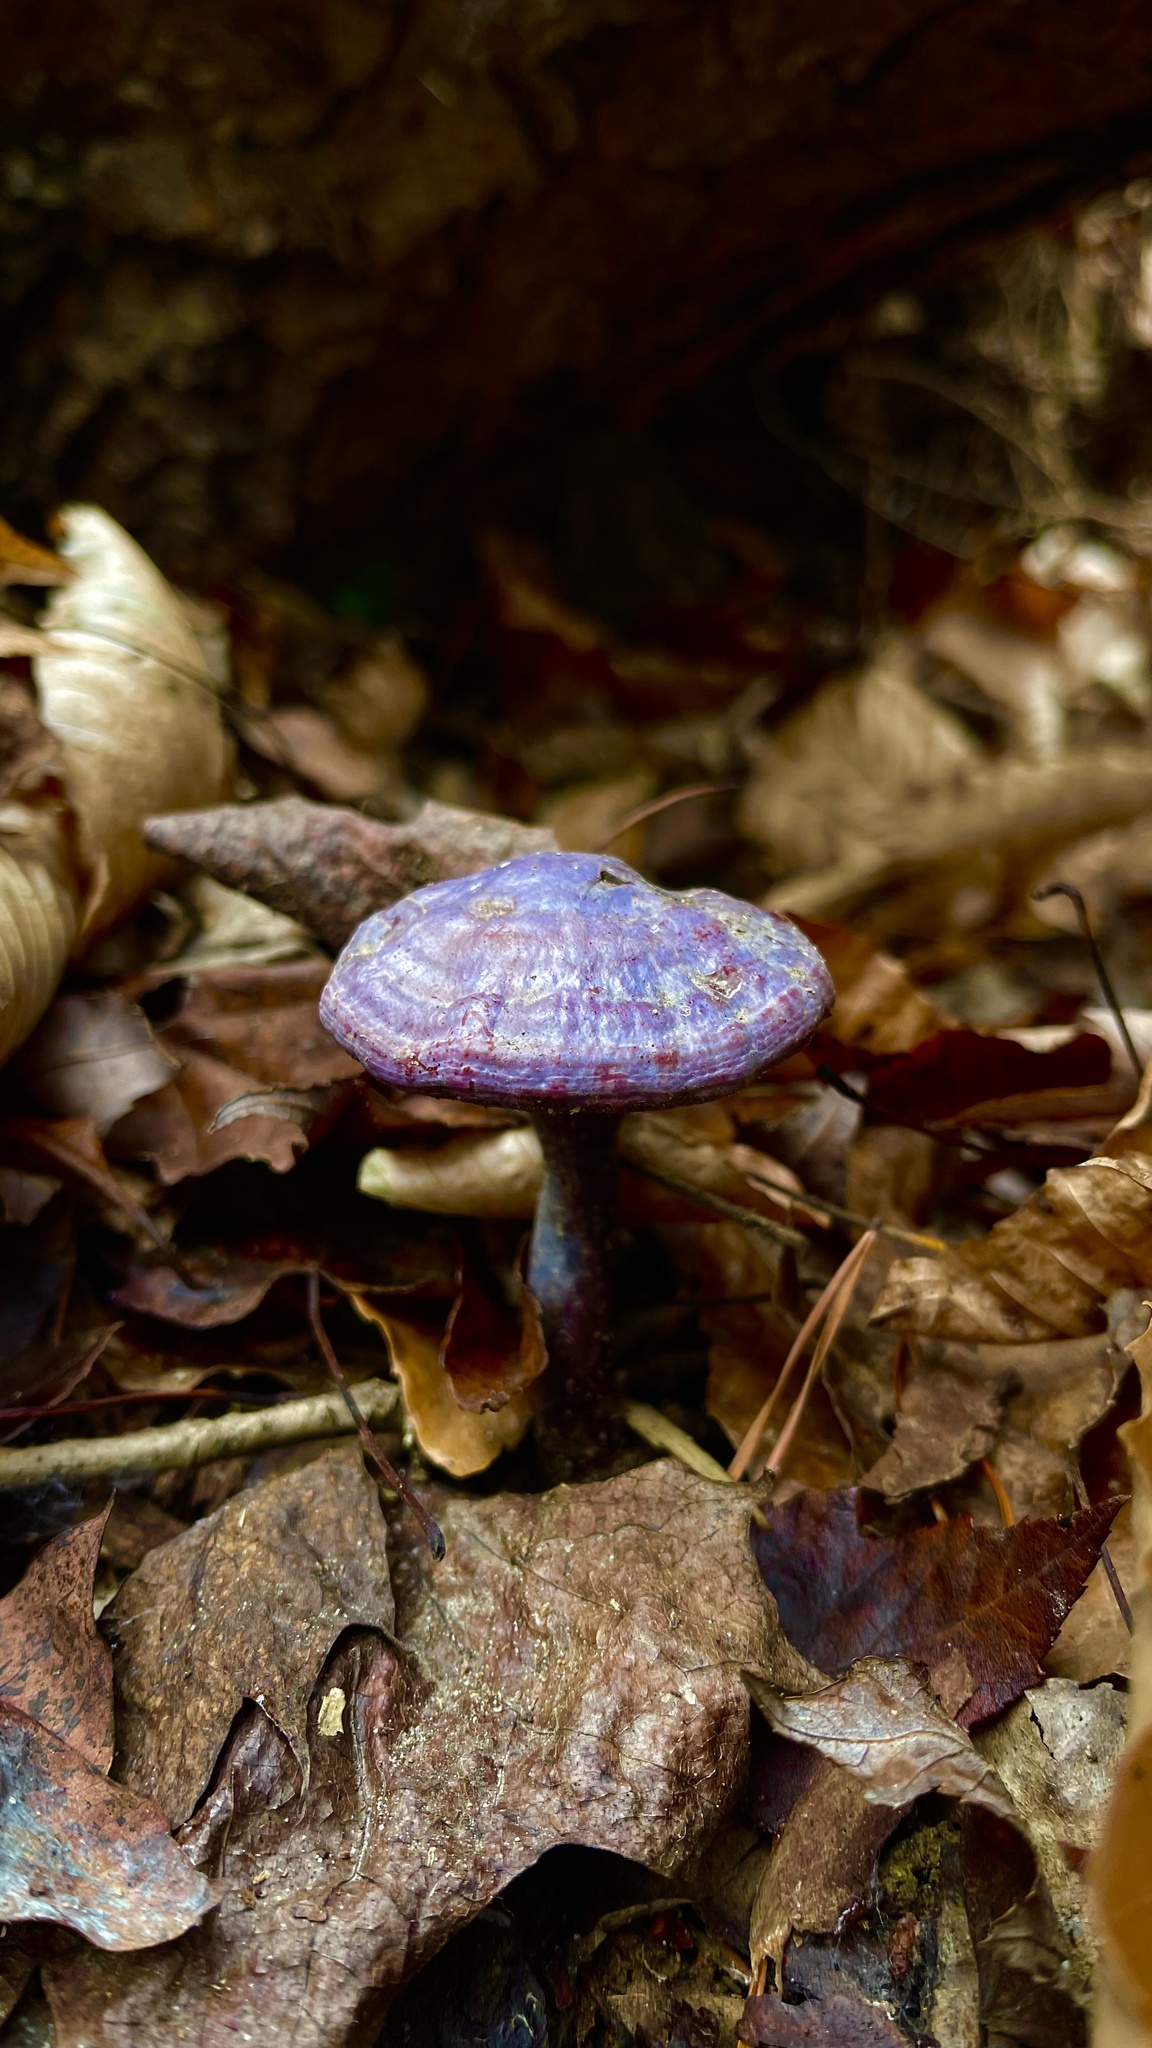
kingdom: Fungi
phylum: Basidiomycota
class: Agaricomycetes
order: Polyporales
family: Polyporaceae
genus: Ganoderma
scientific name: Ganoderma curtisii
